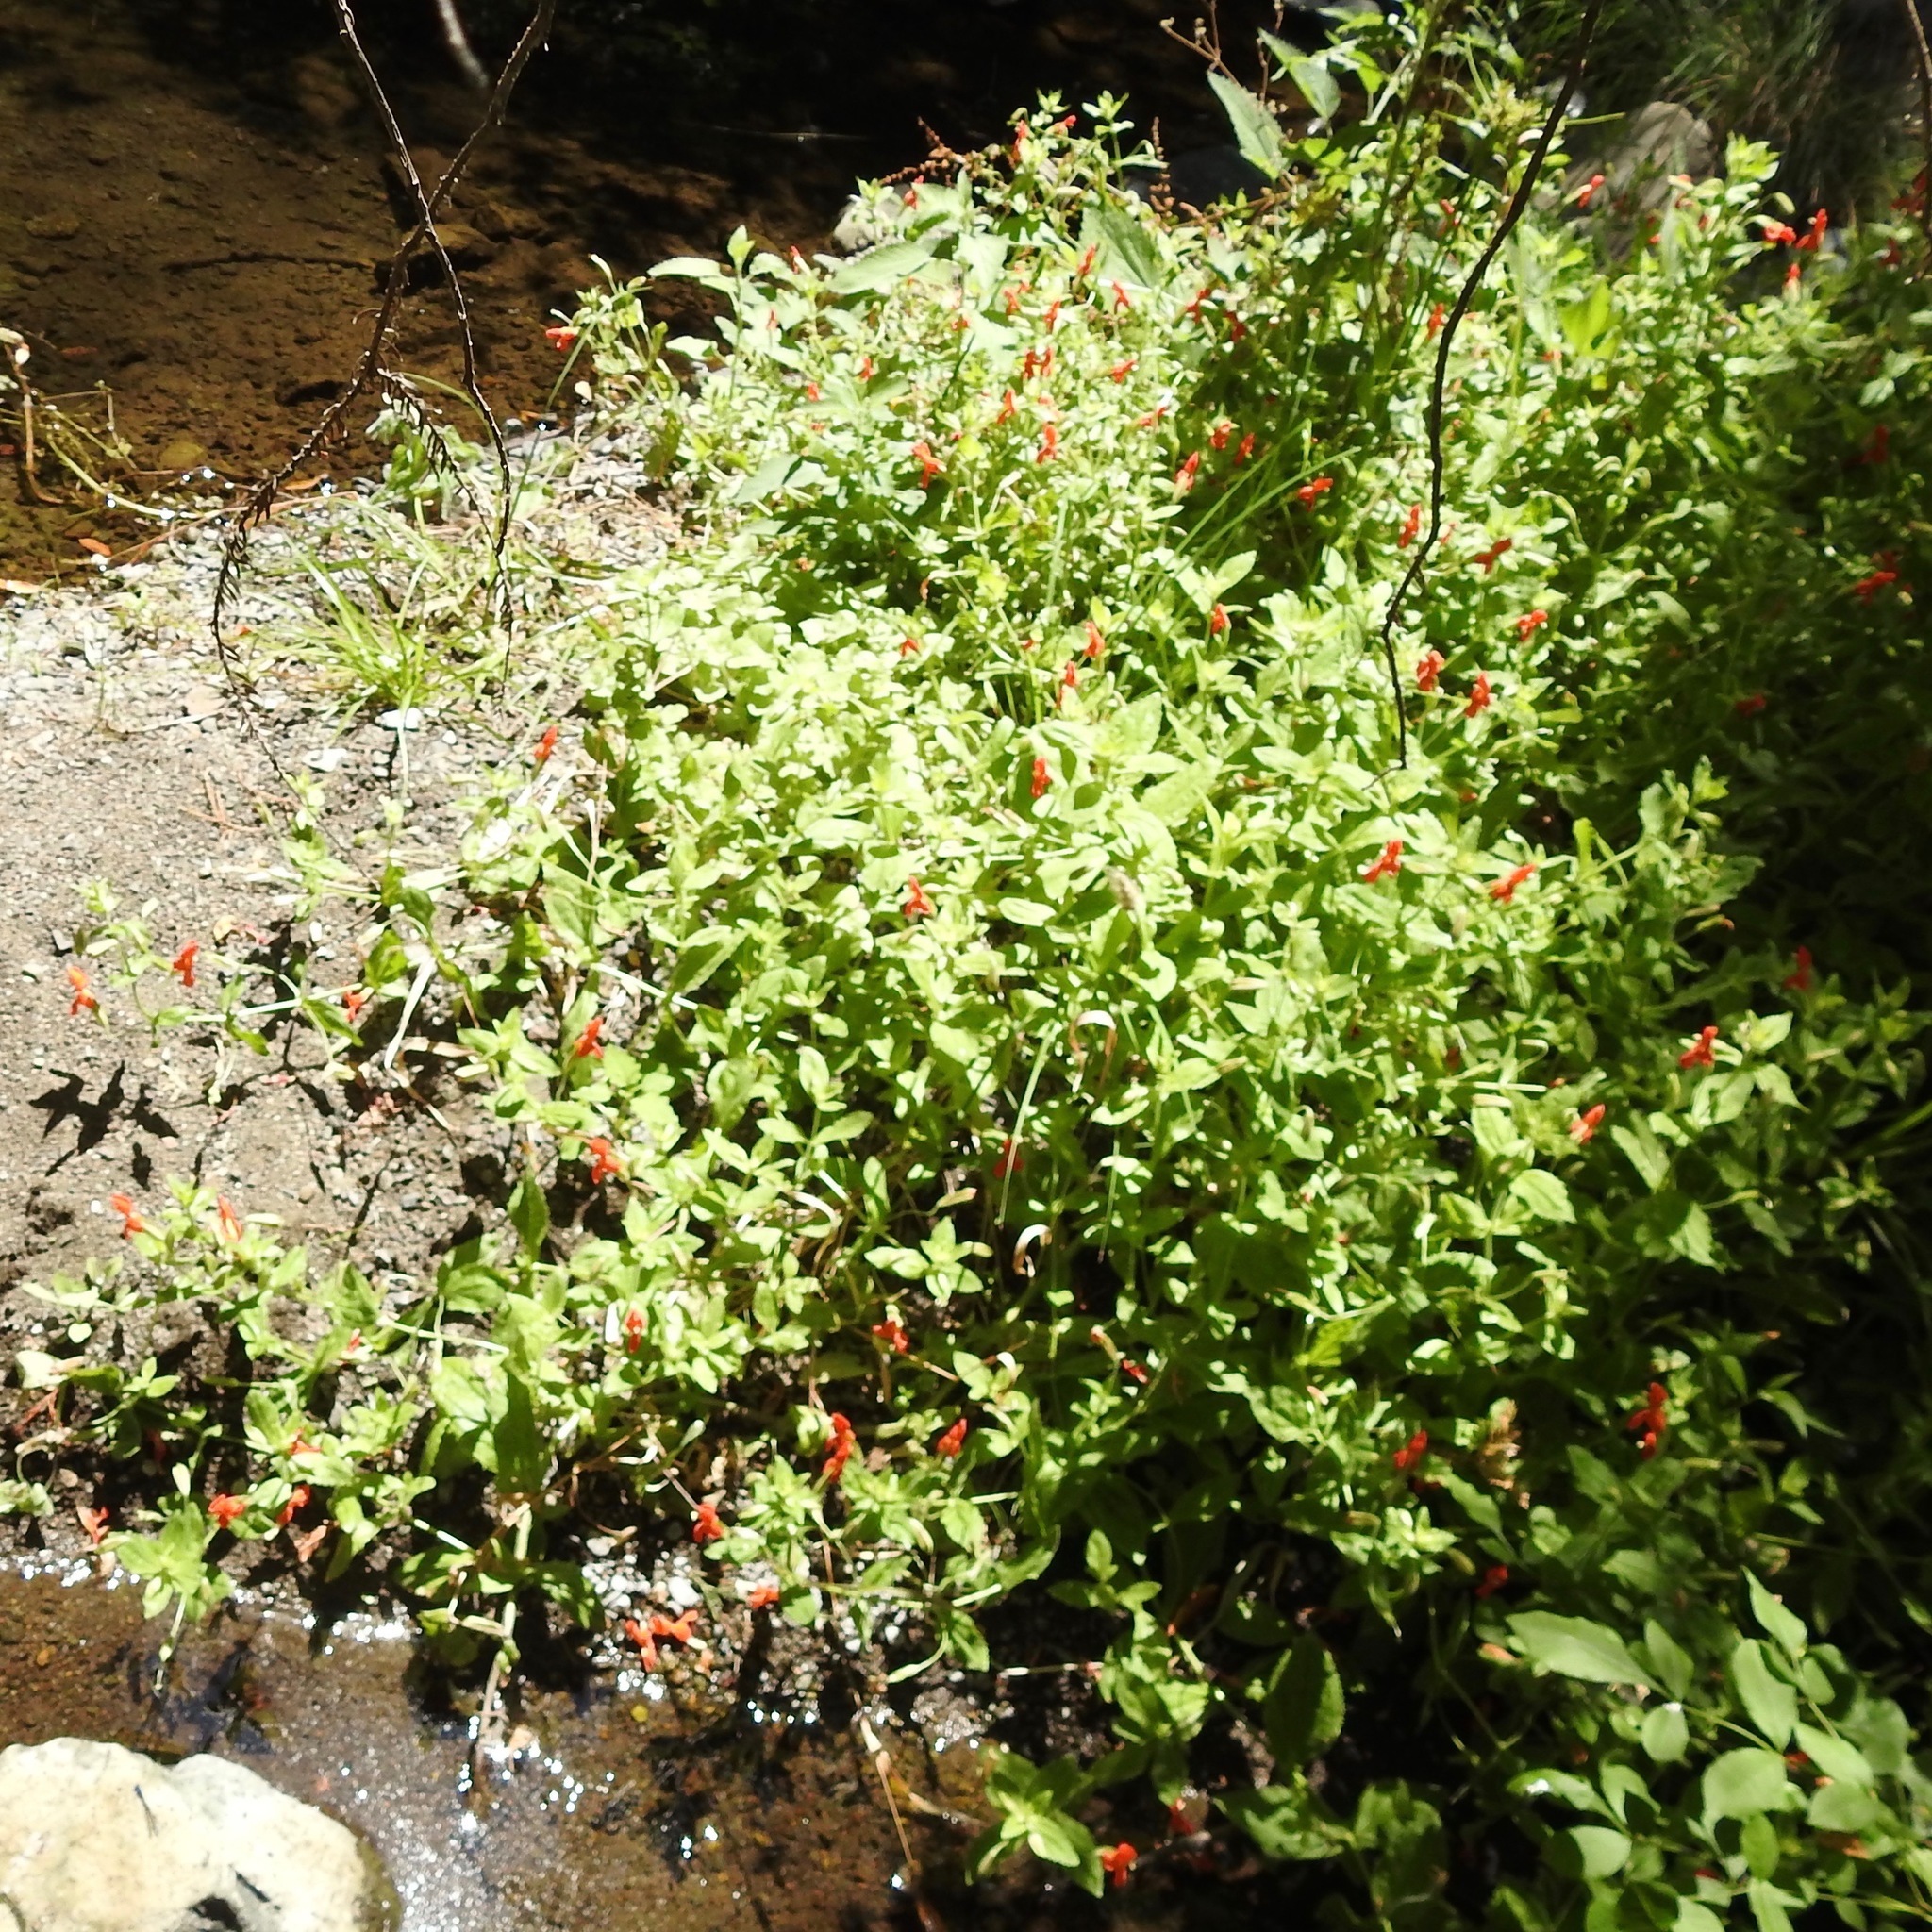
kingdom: Plantae
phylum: Tracheophyta
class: Magnoliopsida
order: Lamiales
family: Phrymaceae
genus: Erythranthe
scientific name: Erythranthe cardinalis
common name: Scarlet monkey-flower
